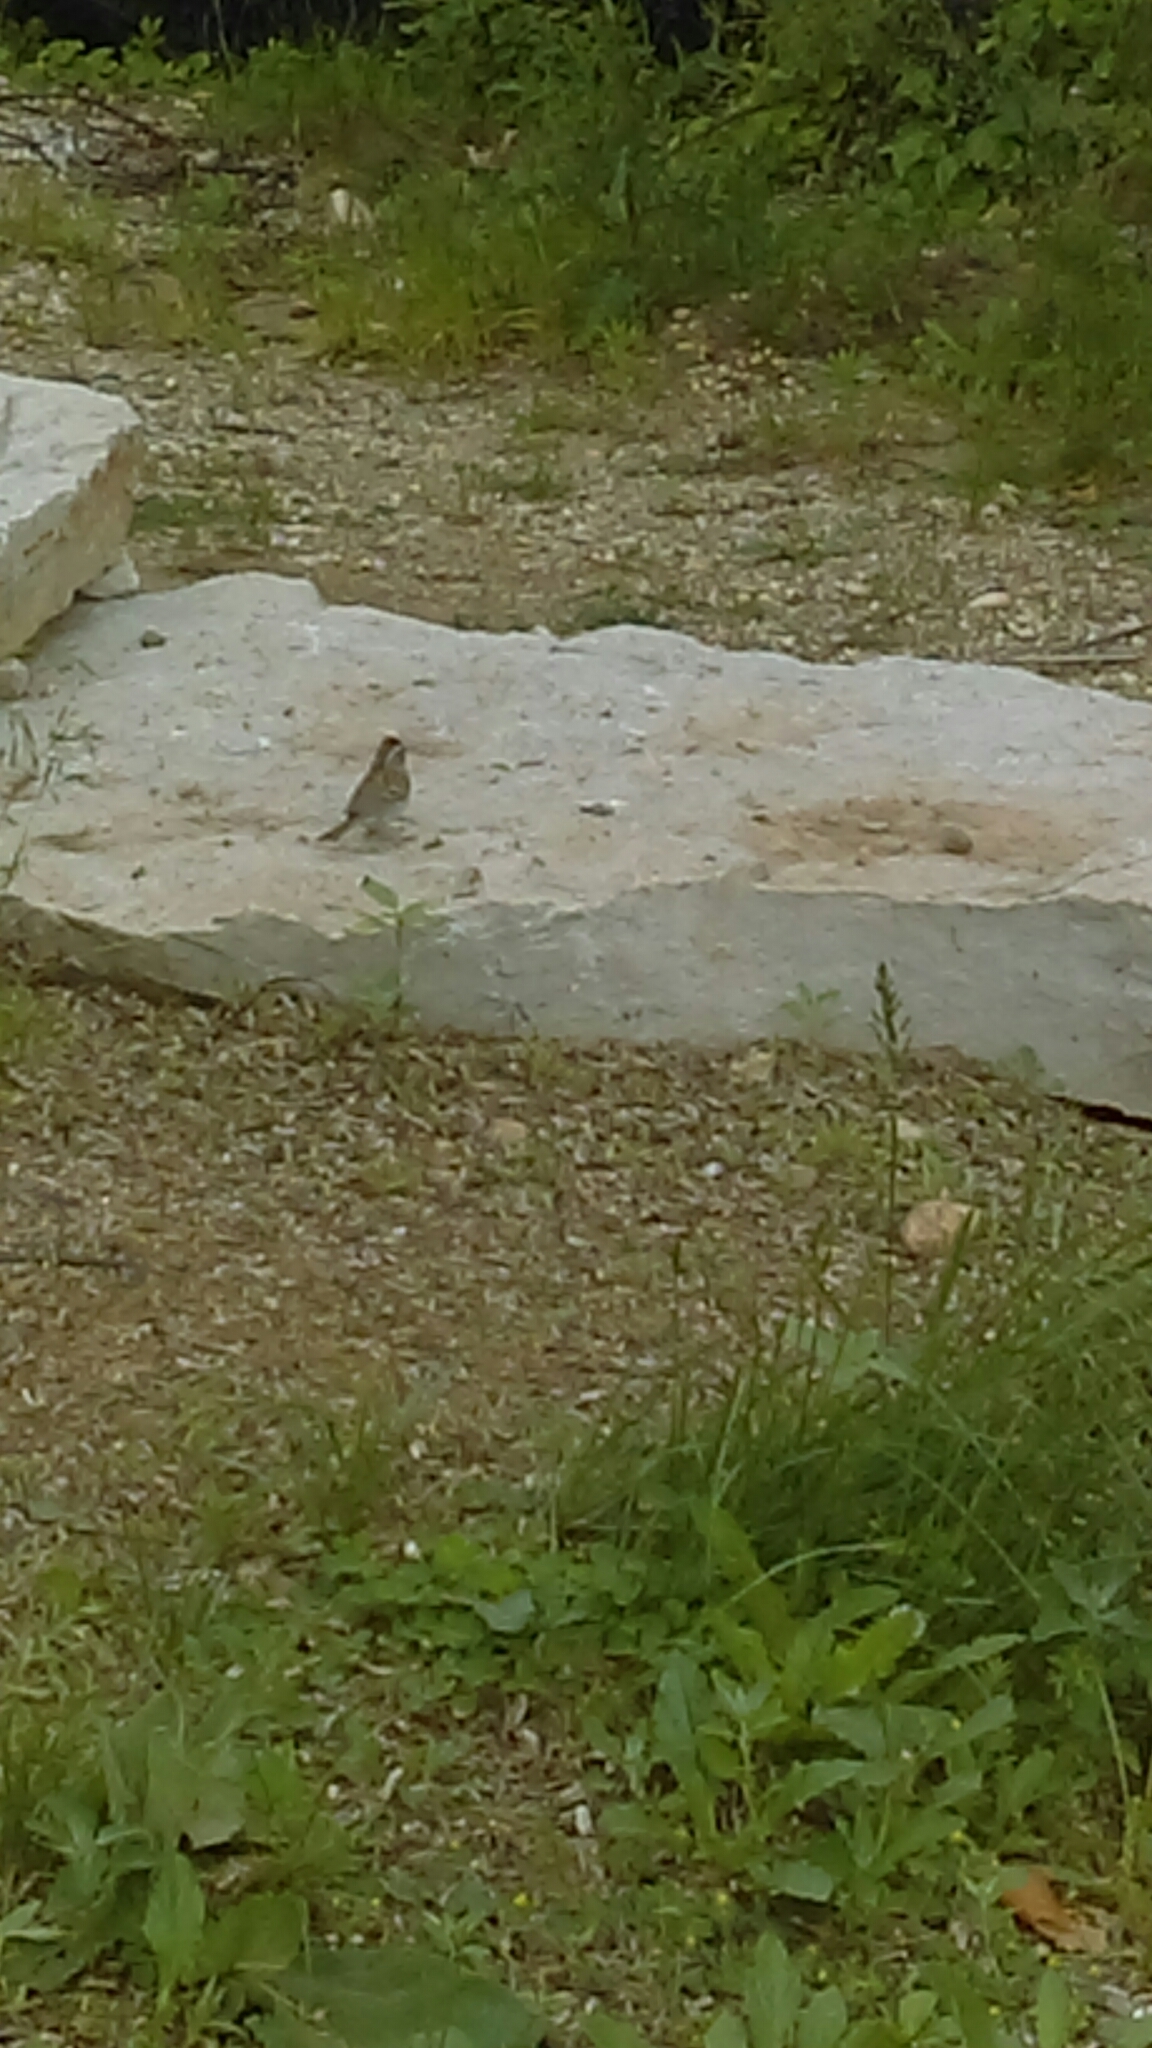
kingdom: Animalia
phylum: Chordata
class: Aves
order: Passeriformes
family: Passerellidae
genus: Spizella
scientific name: Spizella passerina
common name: Chipping sparrow
